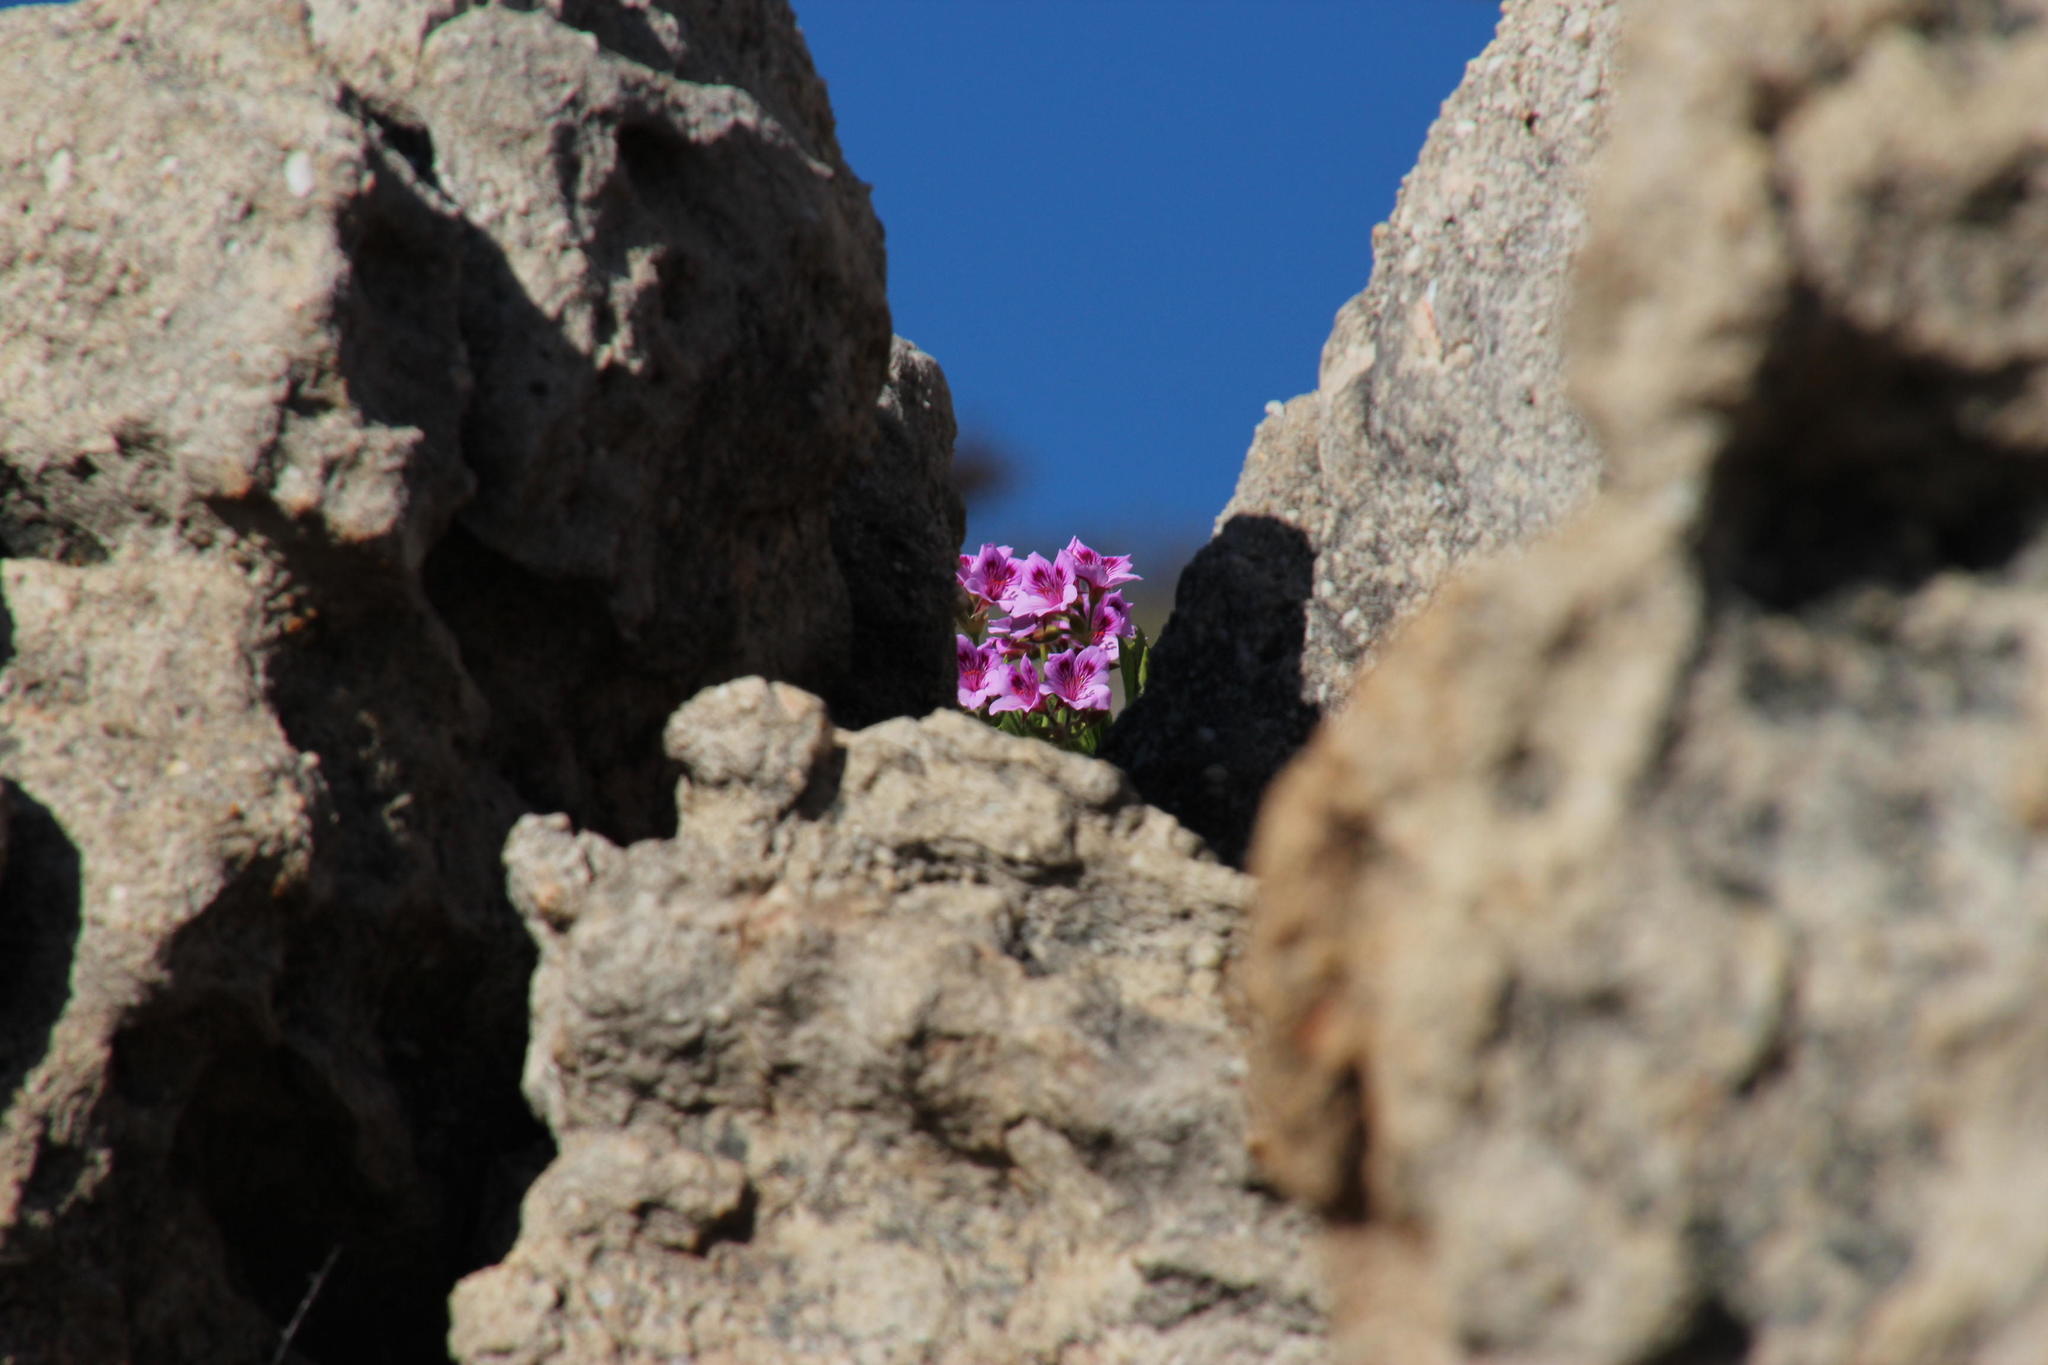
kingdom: Plantae
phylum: Tracheophyta
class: Magnoliopsida
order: Geraniales
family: Geraniaceae
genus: Pelargonium
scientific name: Pelargonium cucullatum
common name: Tree pelargonium
